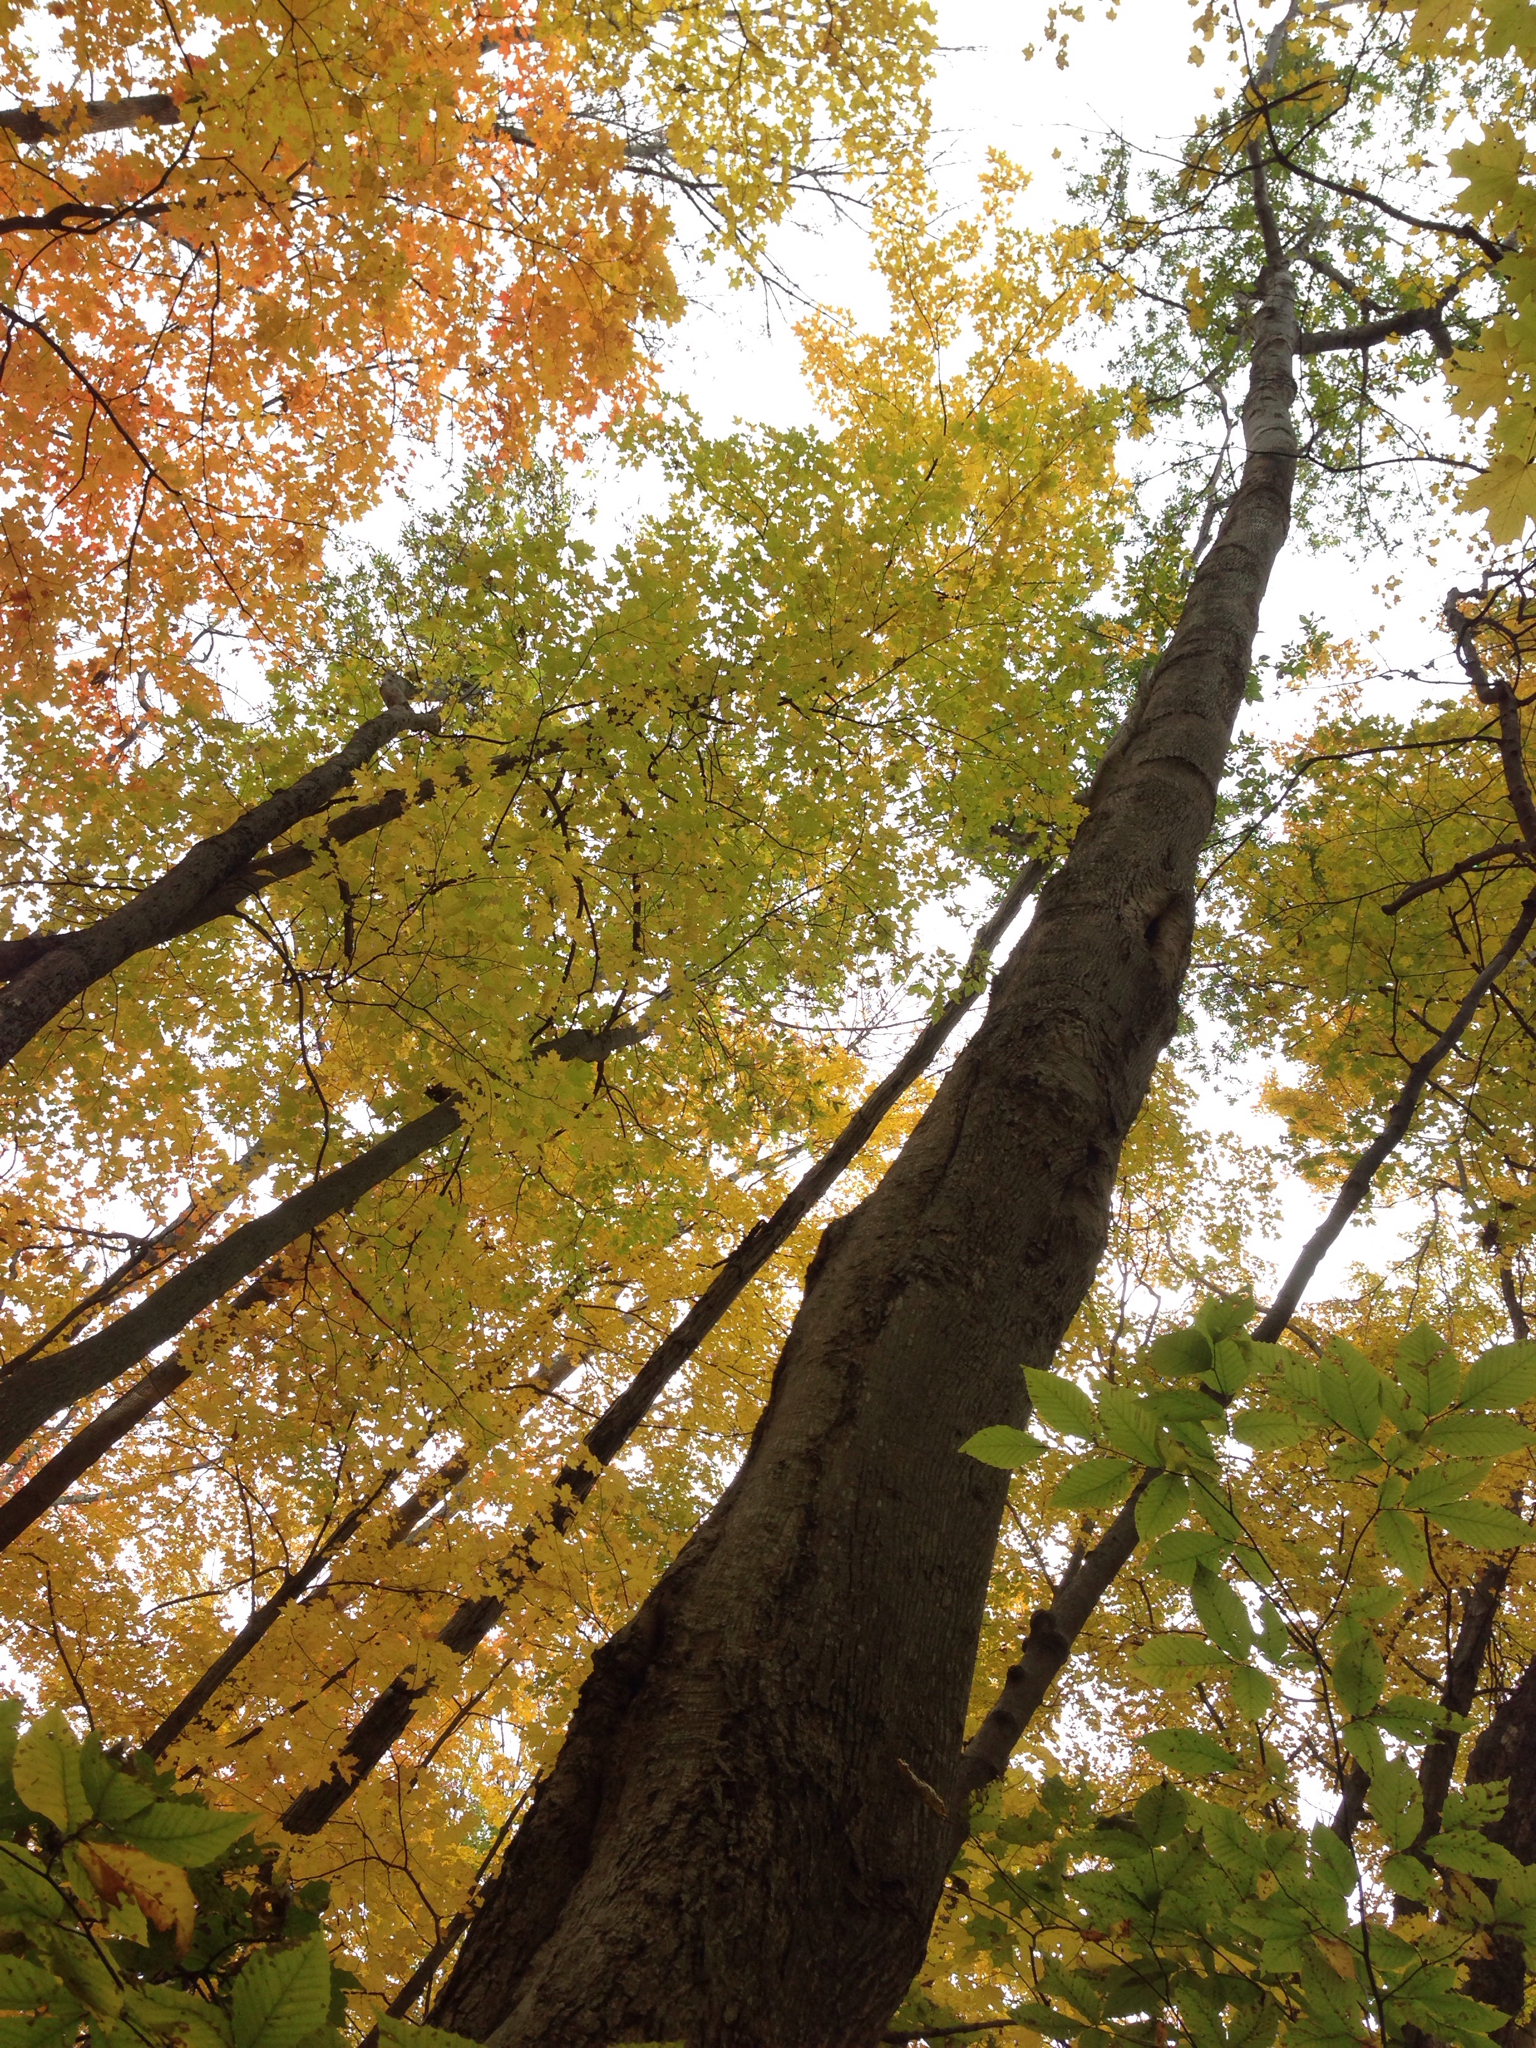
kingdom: Plantae
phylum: Tracheophyta
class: Magnoliopsida
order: Fagales
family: Juglandaceae
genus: Carya
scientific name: Carya cordiformis
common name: Bitternut hickory
